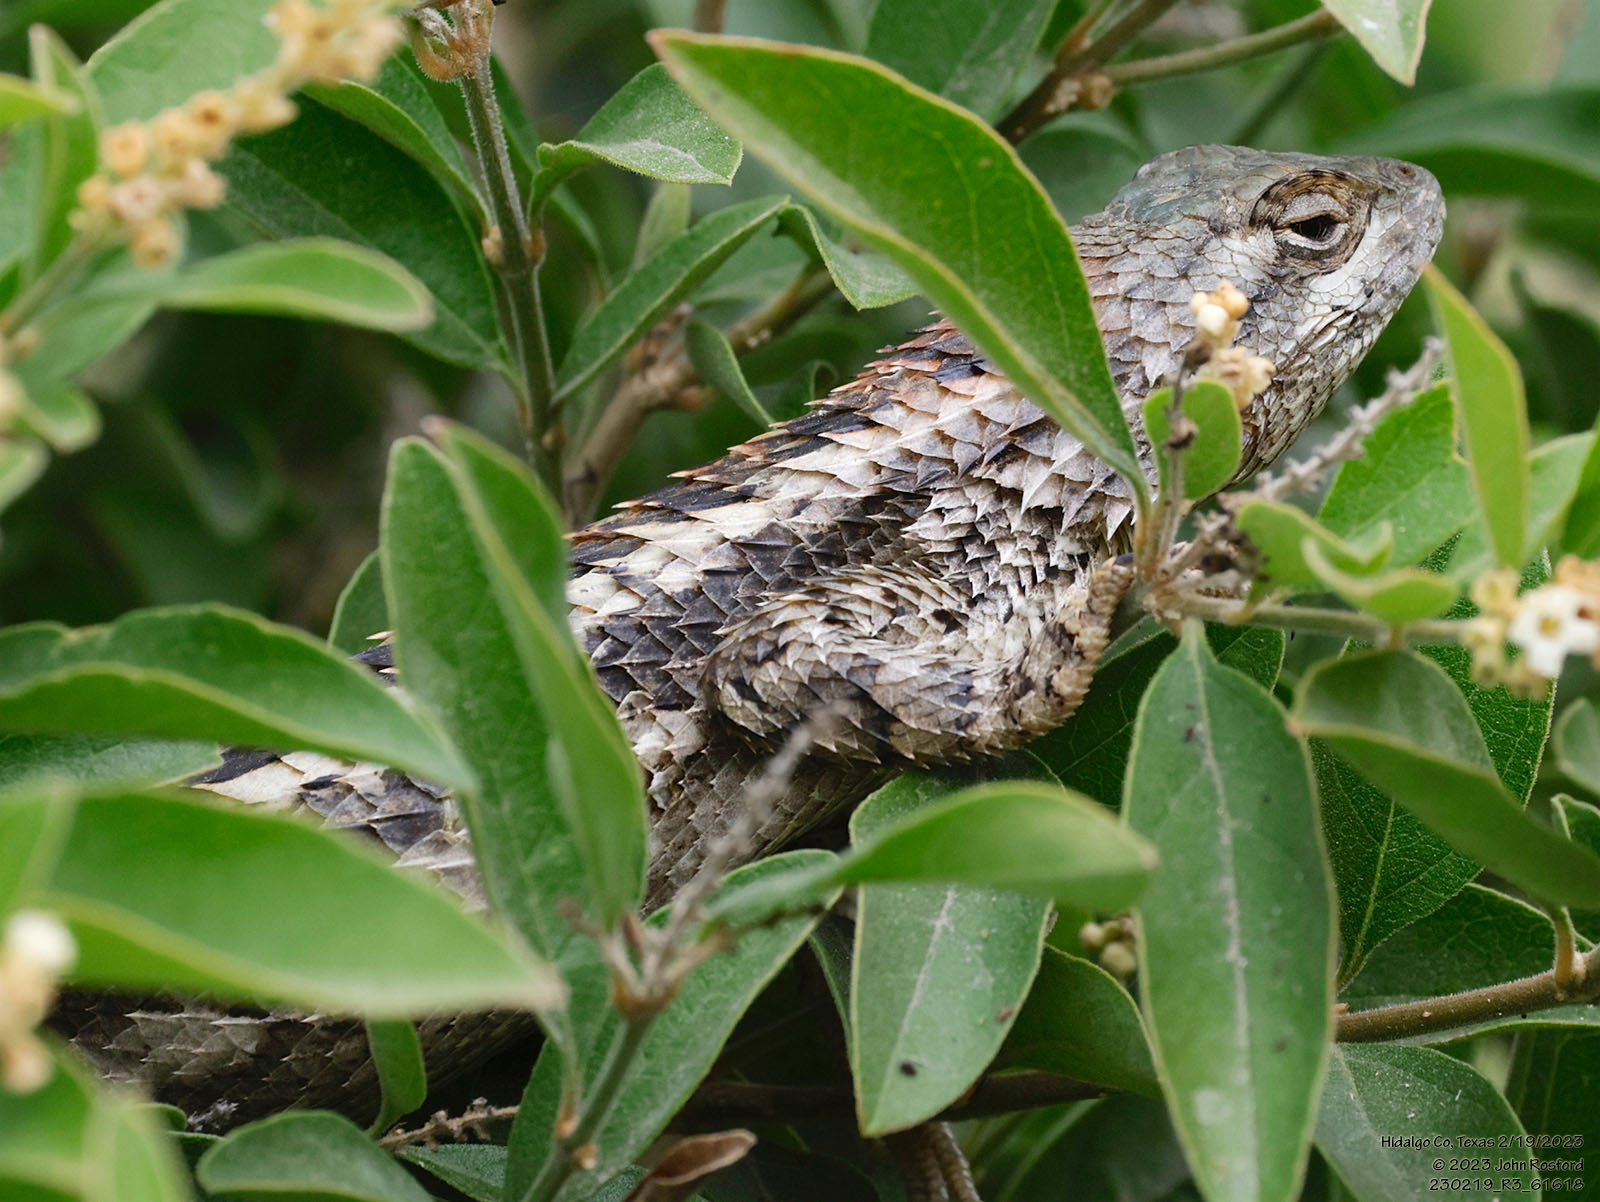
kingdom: Animalia
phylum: Chordata
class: Squamata
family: Phrynosomatidae
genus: Sceloporus
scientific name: Sceloporus olivaceus
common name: Texas spiny lizard
